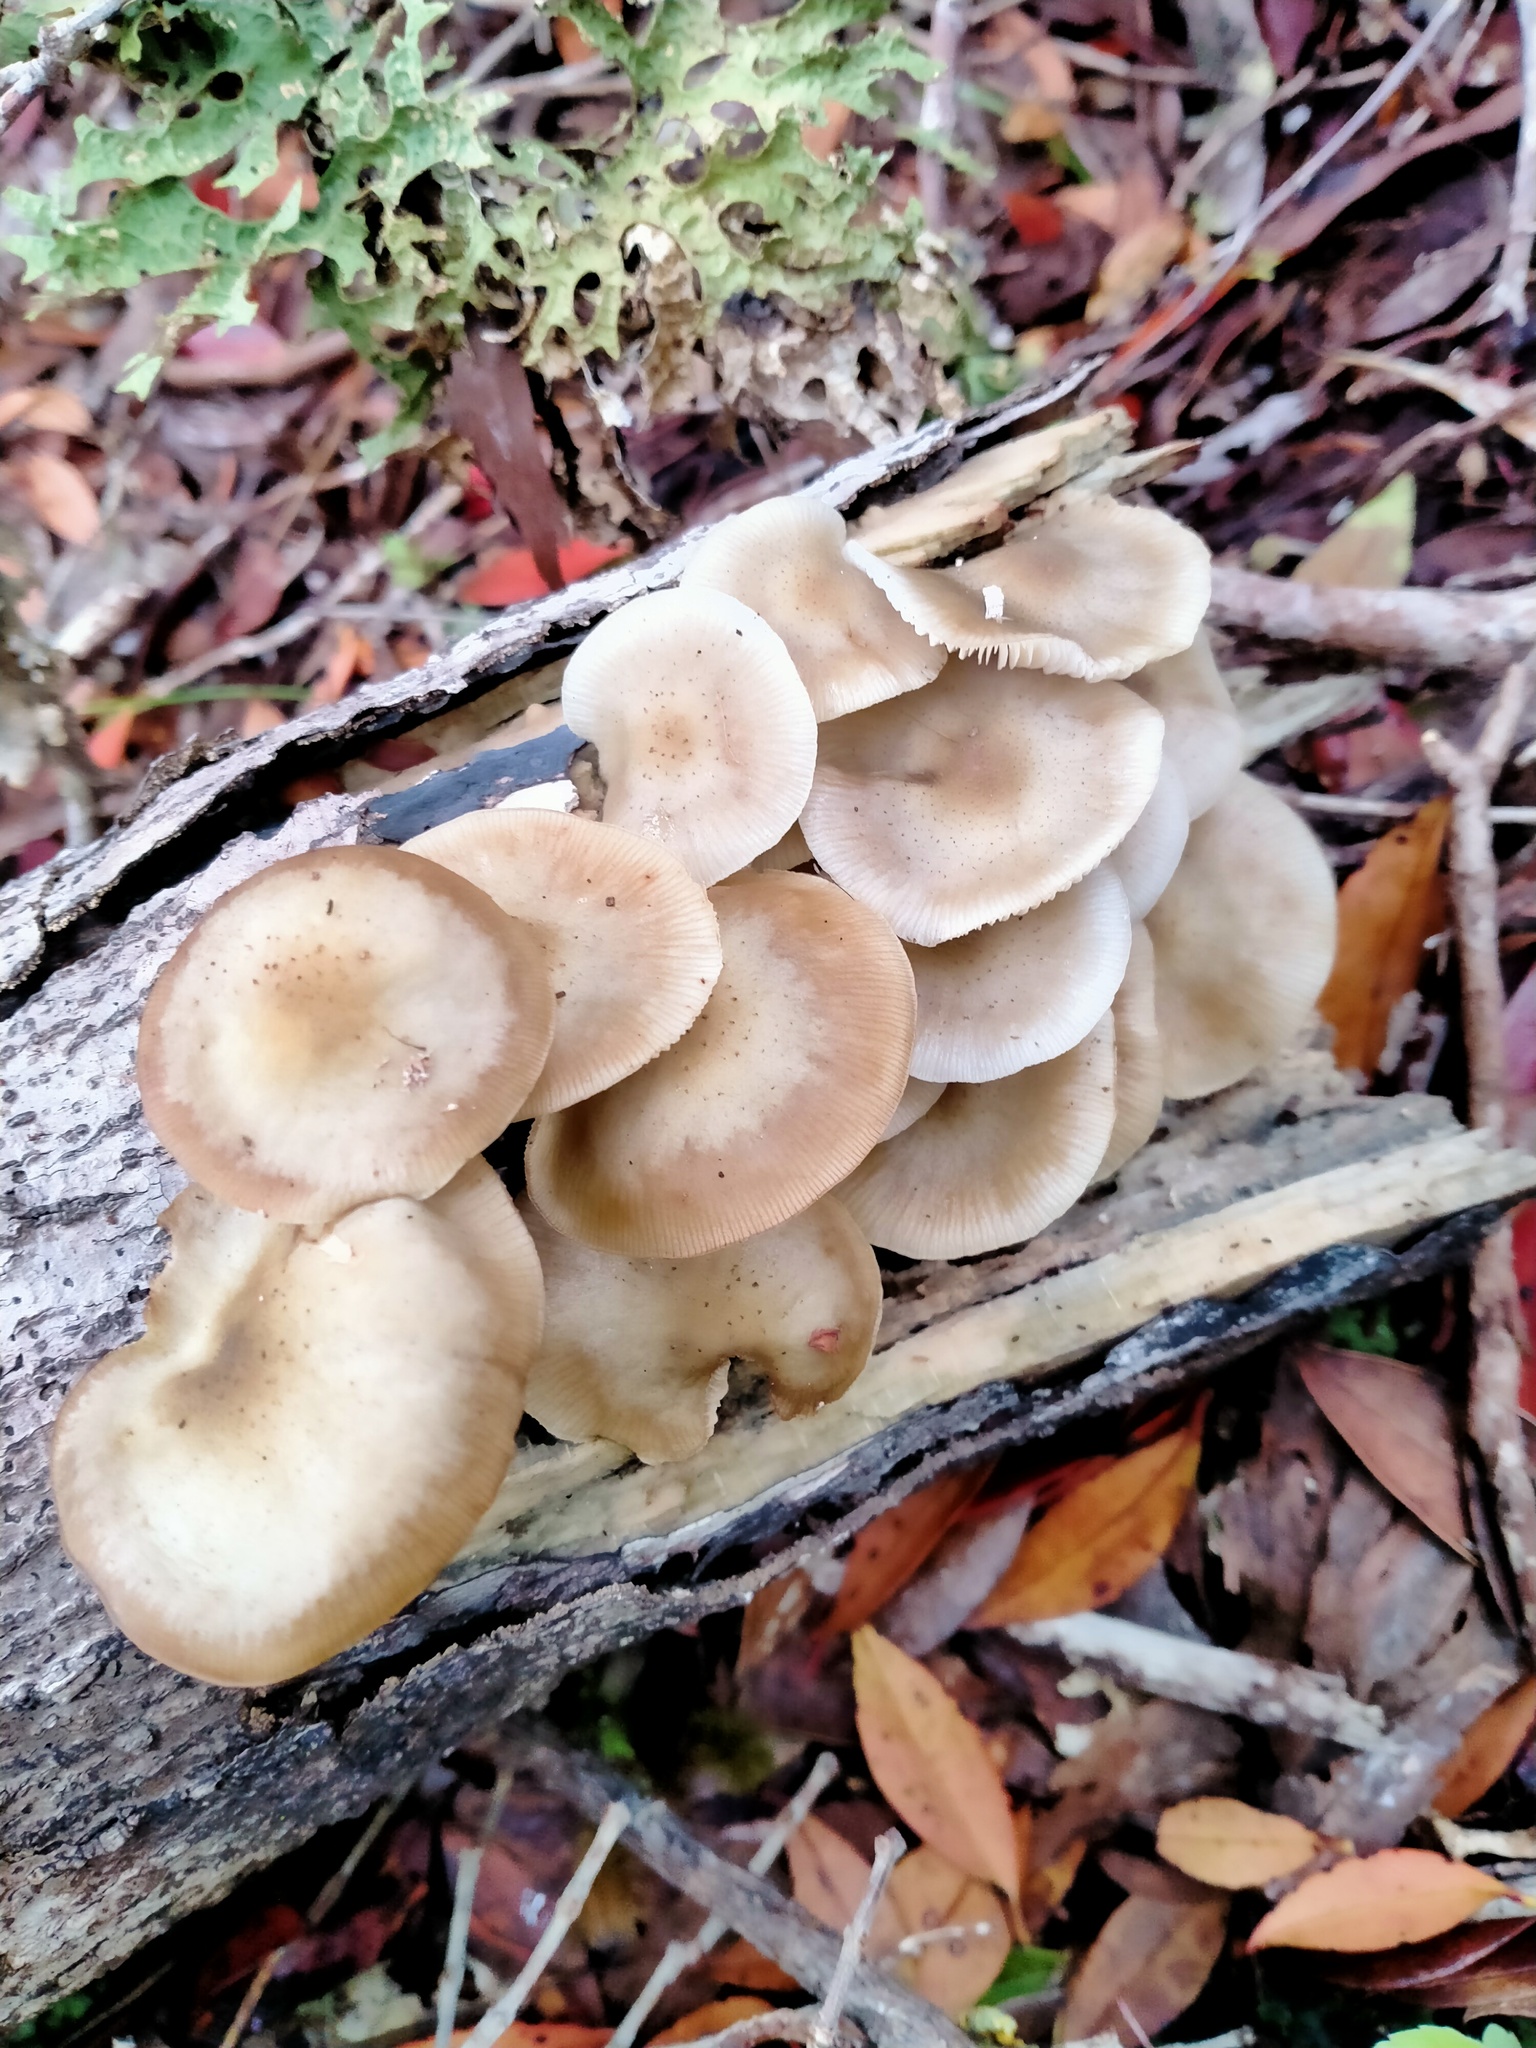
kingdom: Fungi
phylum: Basidiomycota
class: Agaricomycetes
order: Agaricales
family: Physalacriaceae
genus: Armillaria
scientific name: Armillaria novae-zelandiae
